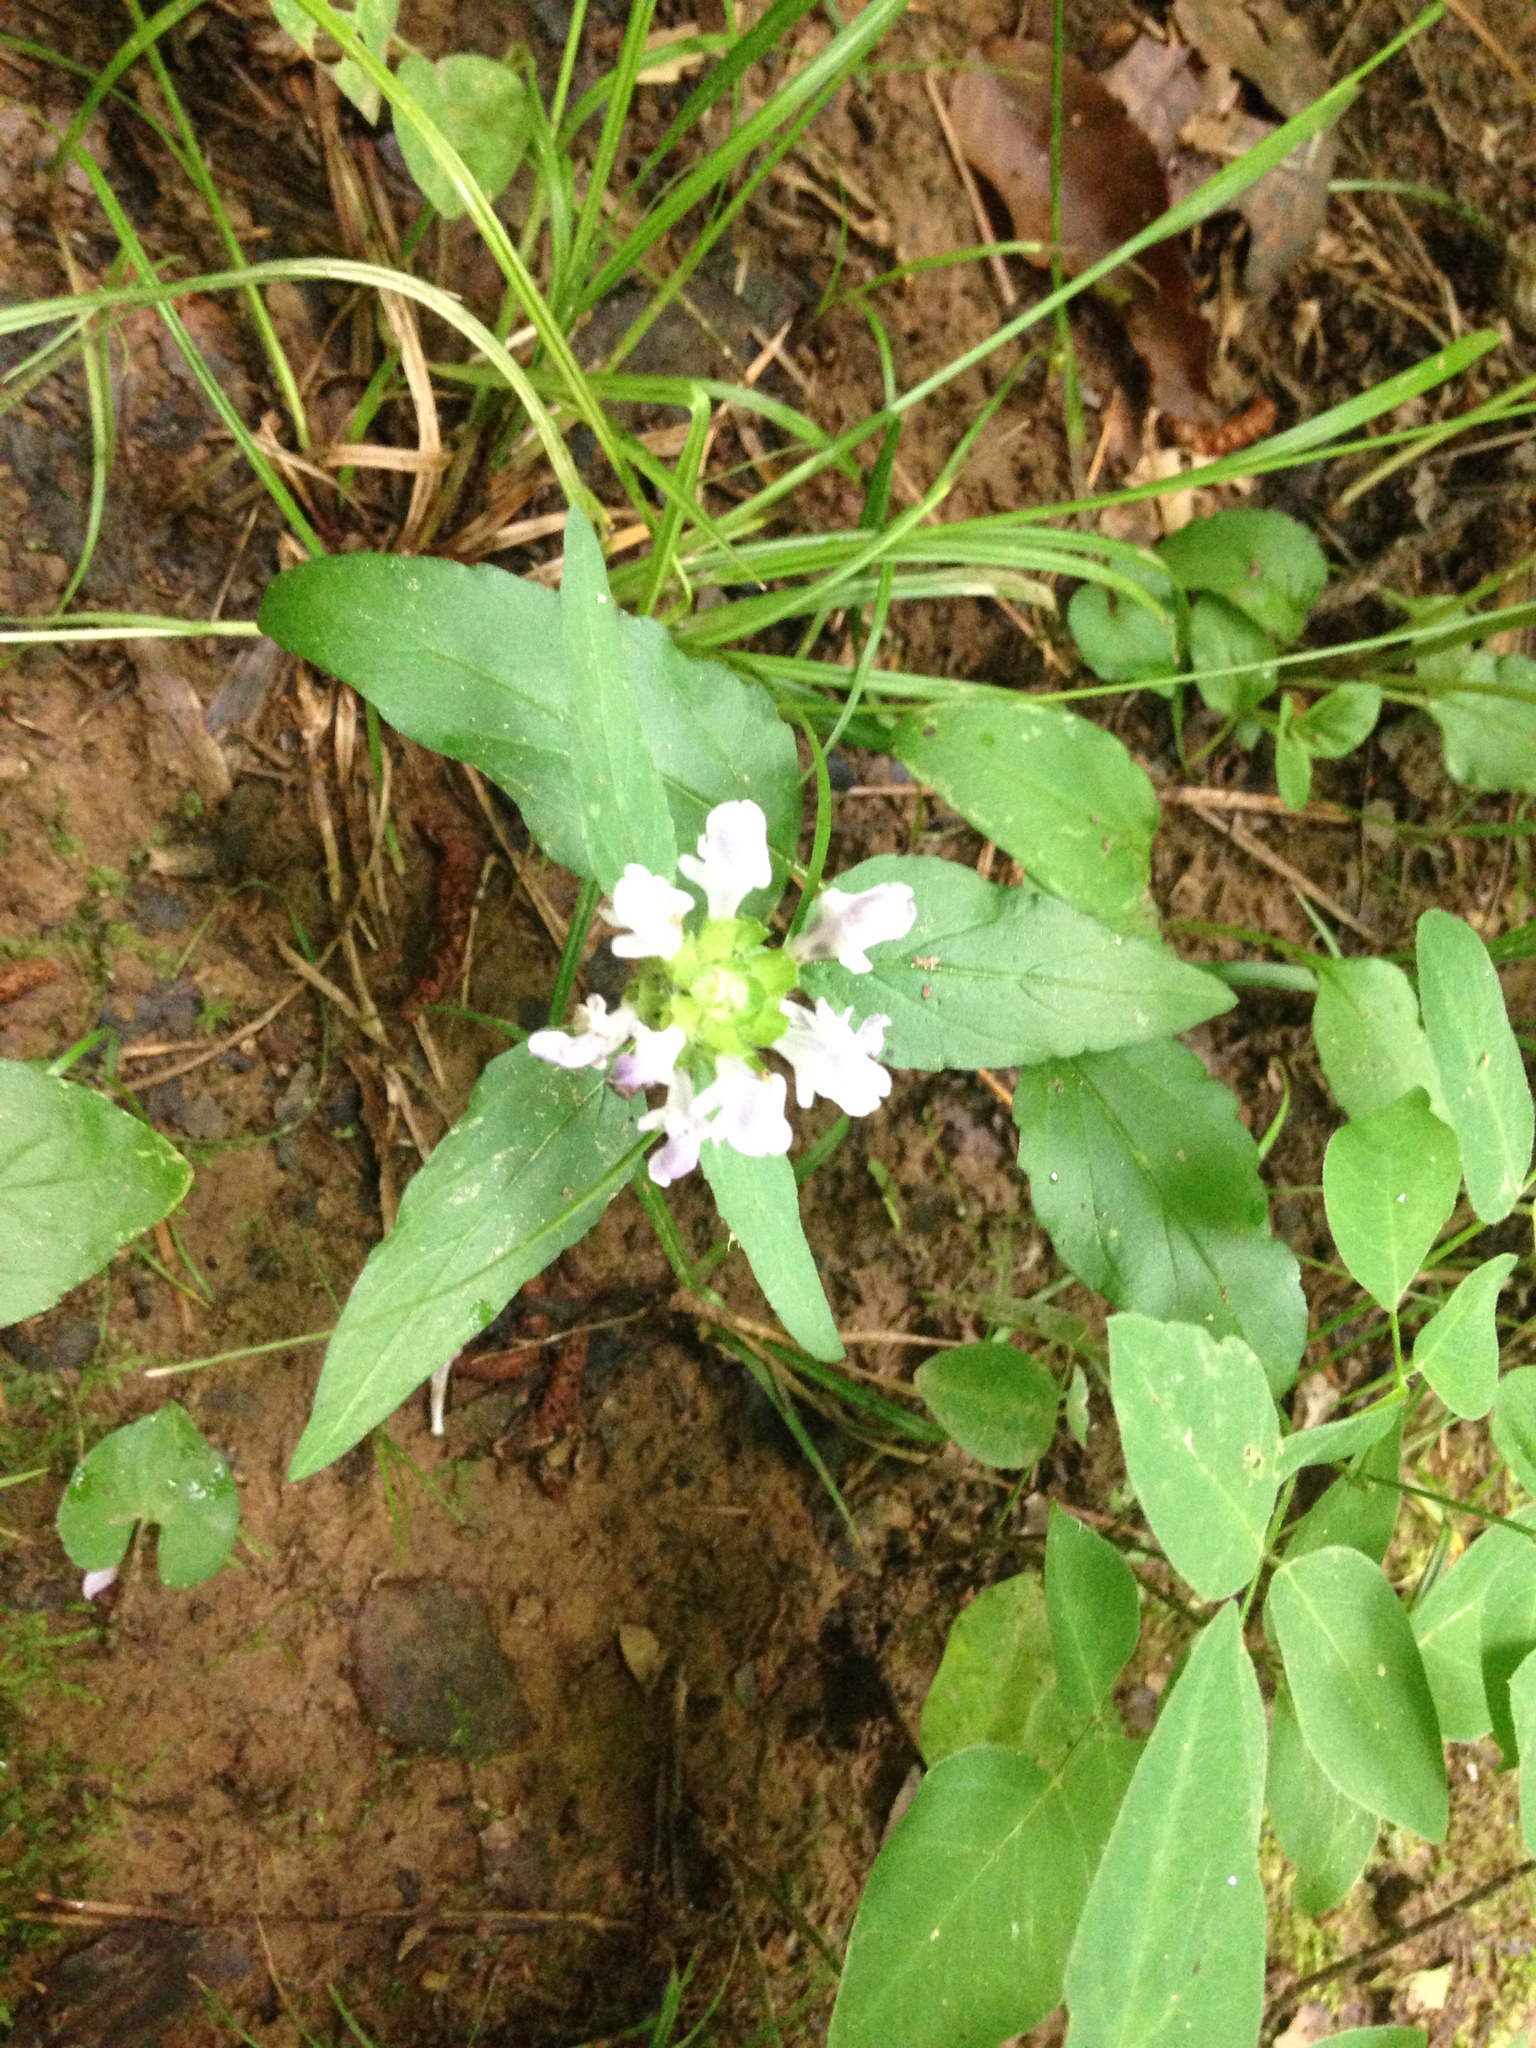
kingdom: Plantae
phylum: Tracheophyta
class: Magnoliopsida
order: Lamiales
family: Lamiaceae
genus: Prunella
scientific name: Prunella vulgaris
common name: Heal-all
